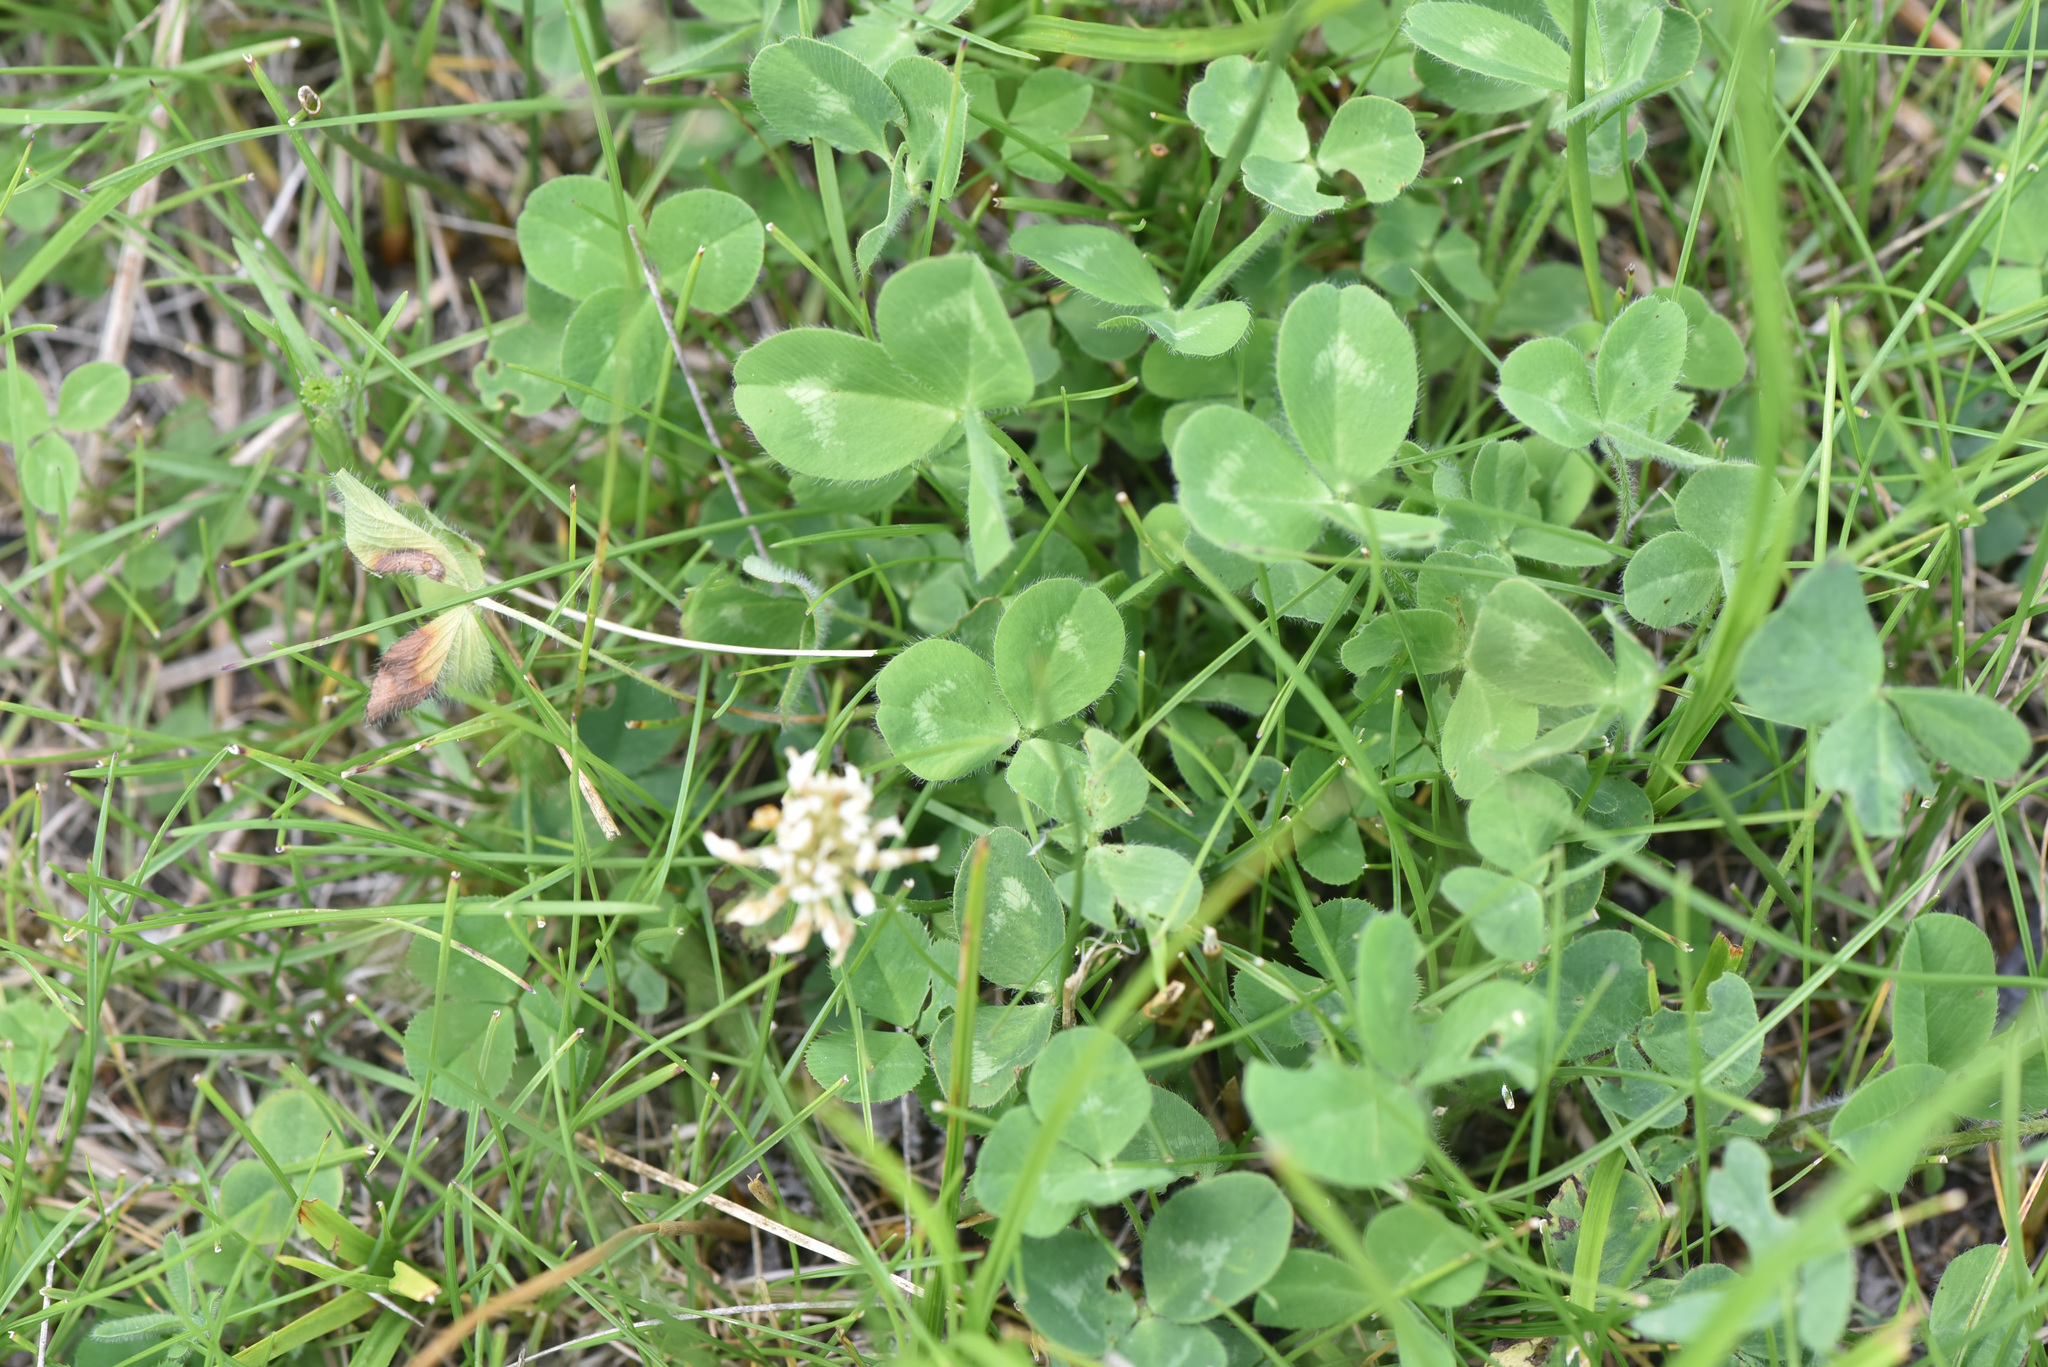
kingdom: Plantae
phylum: Tracheophyta
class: Magnoliopsida
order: Fabales
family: Fabaceae
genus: Trifolium
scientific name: Trifolium repens
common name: White clover
